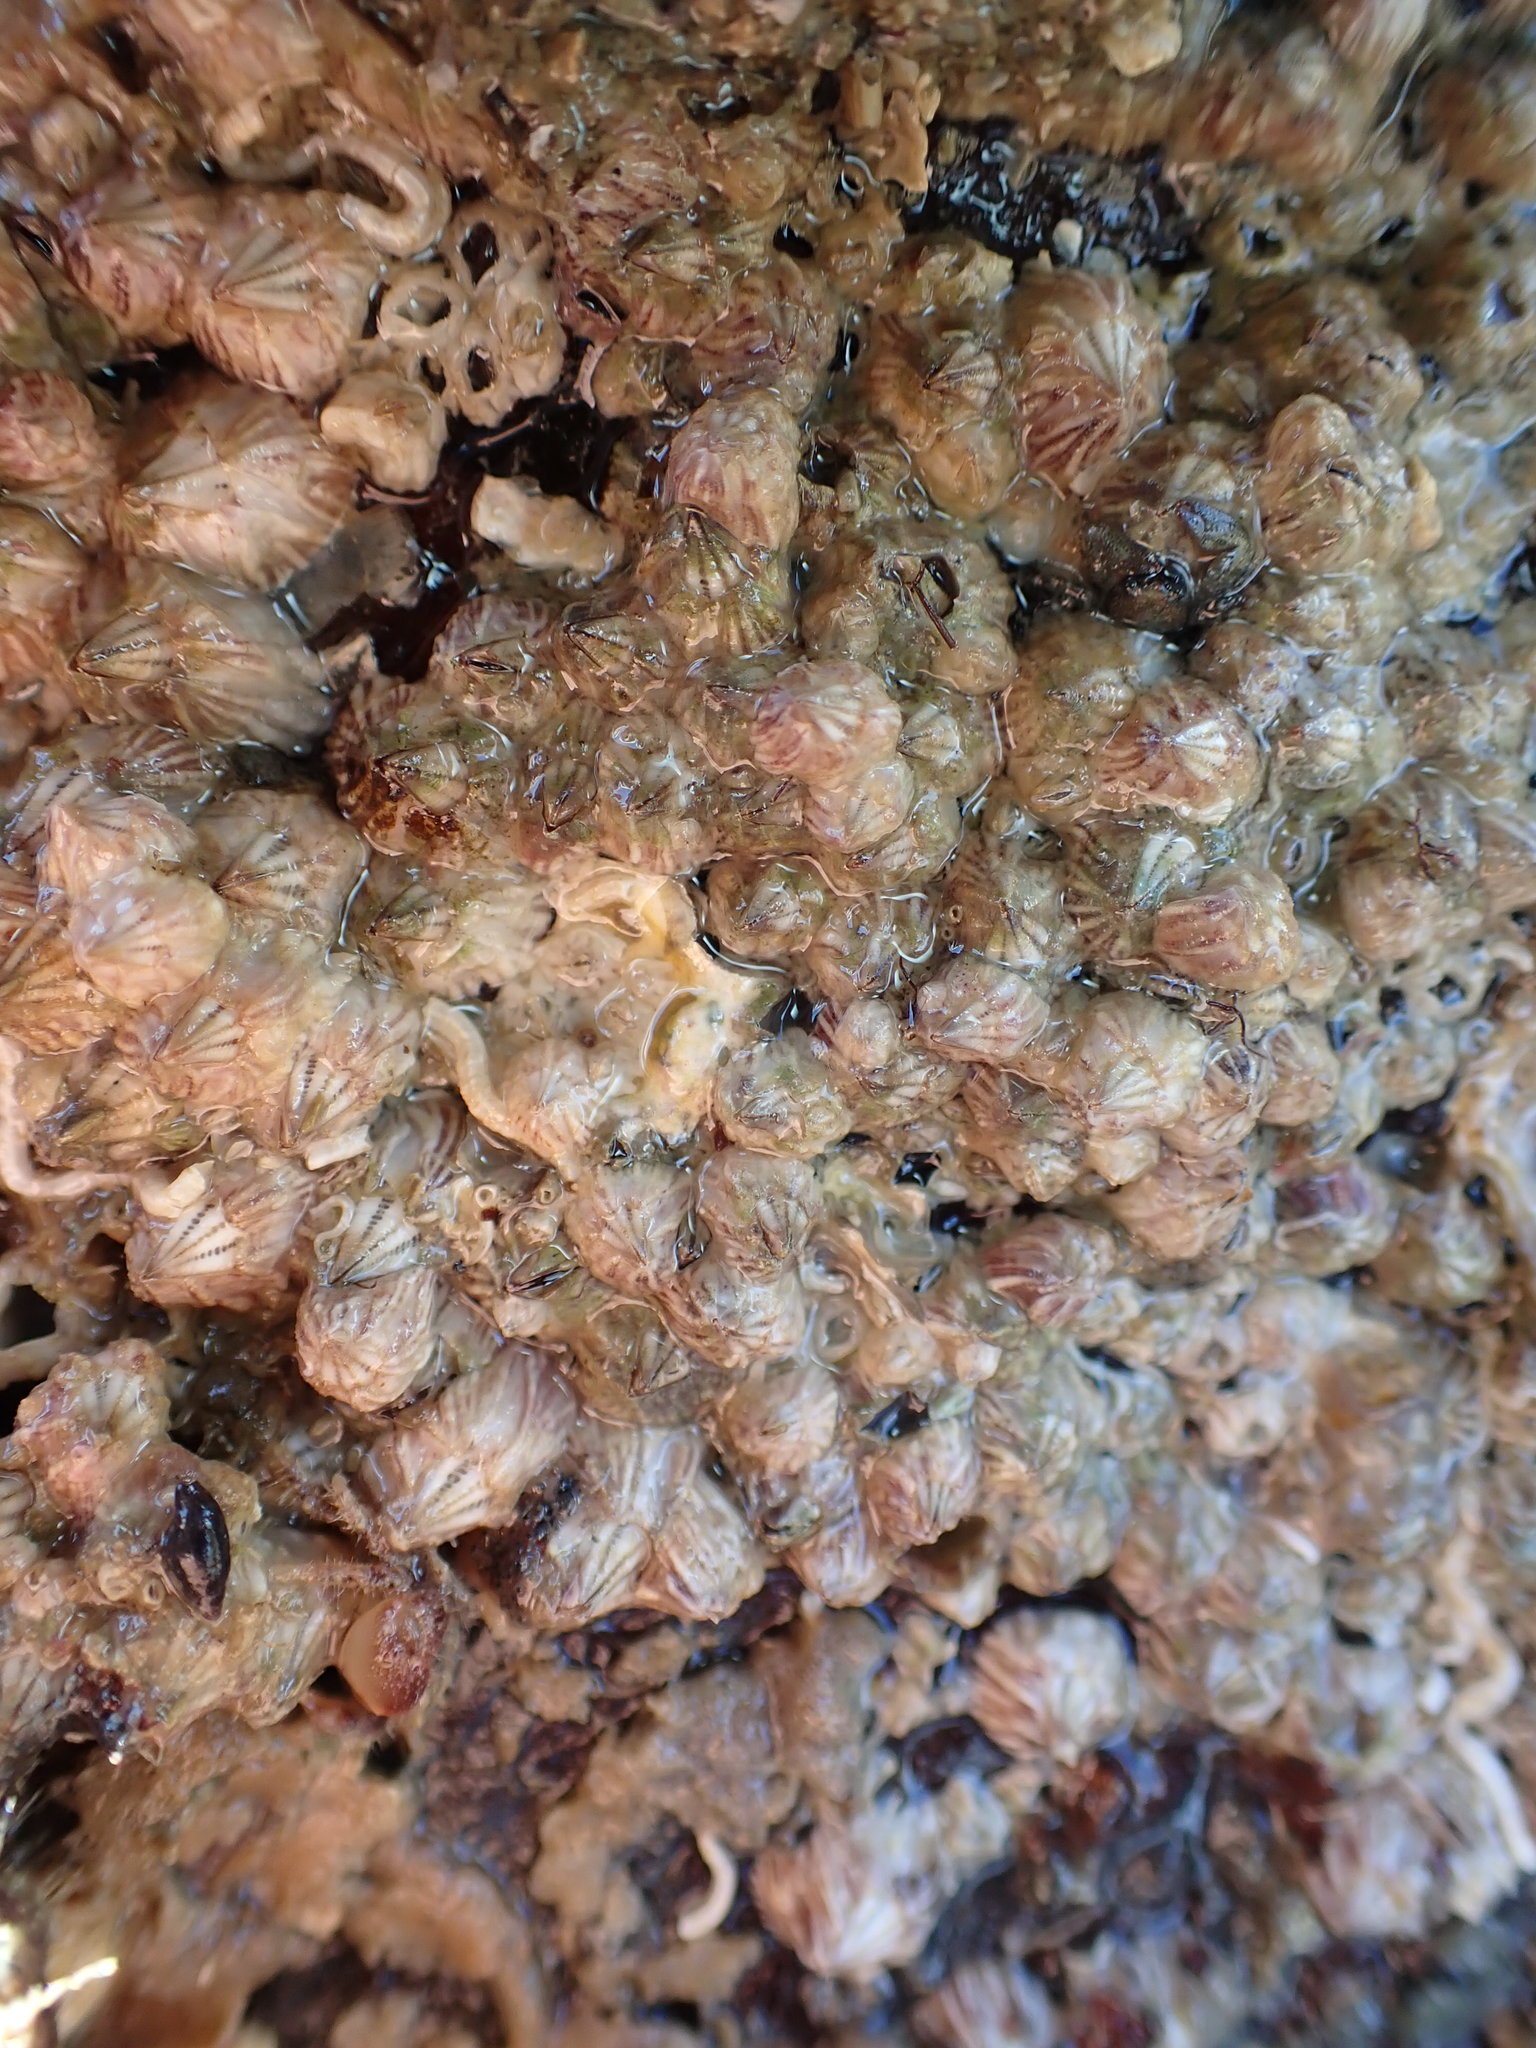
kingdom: Animalia
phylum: Arthropoda
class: Maxillopoda
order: Sessilia
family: Balanidae
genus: Balanus
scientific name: Balanus trigonus
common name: Triangle barnacle
